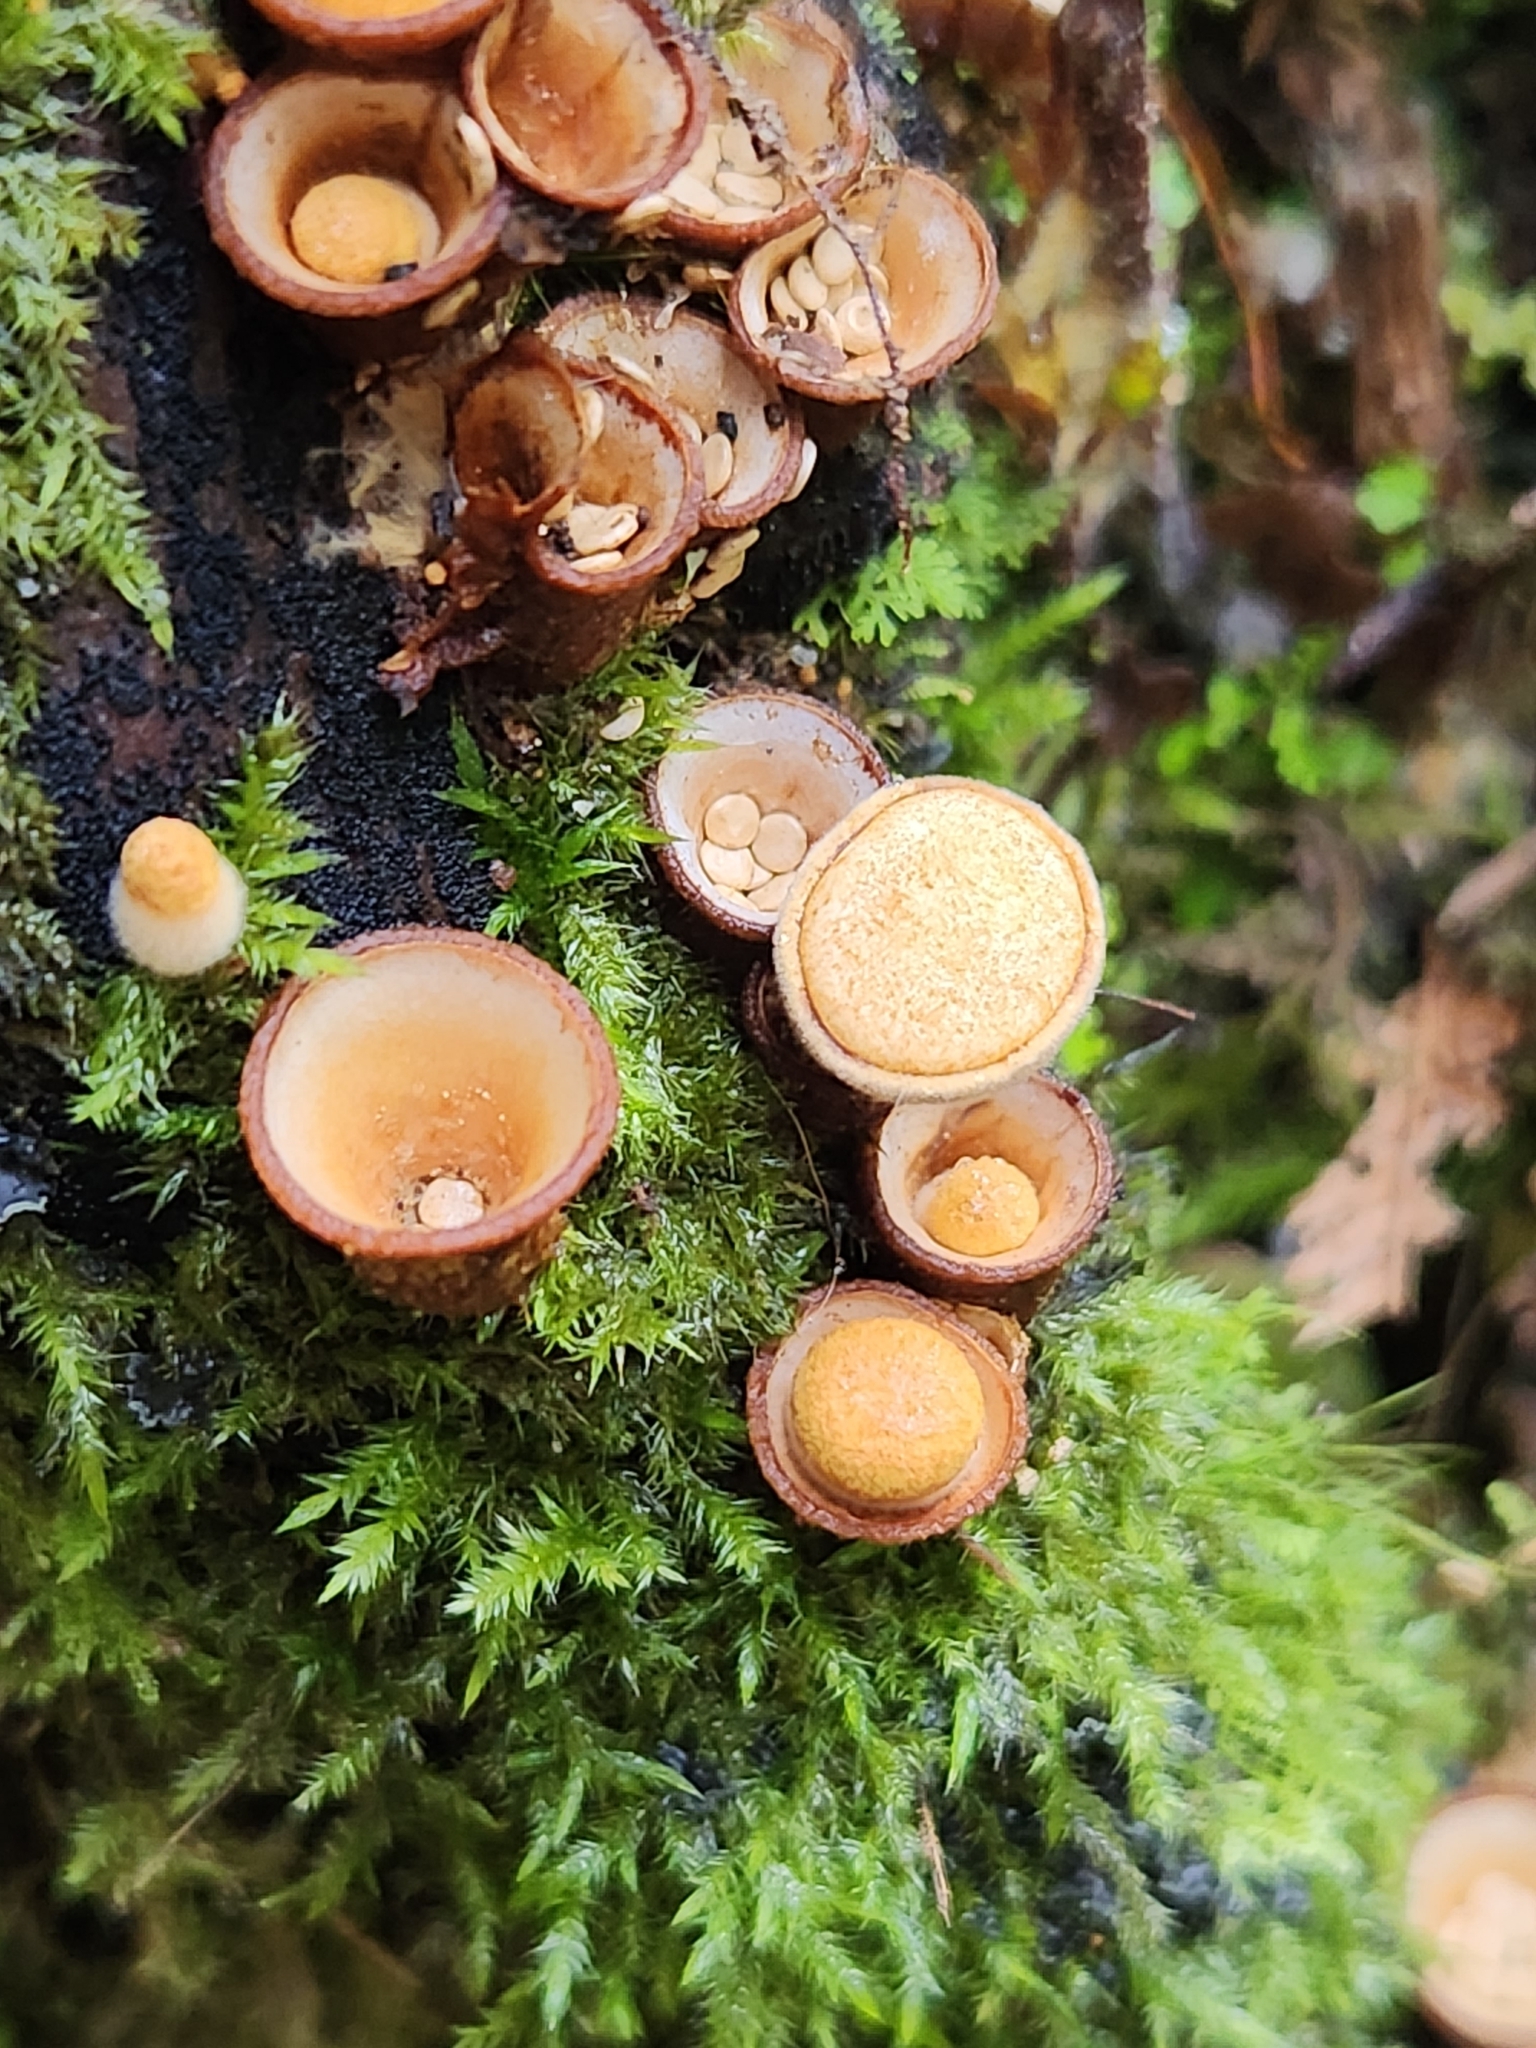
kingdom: Fungi
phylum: Basidiomycota
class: Agaricomycetes
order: Agaricales
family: Nidulariaceae
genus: Crucibulum
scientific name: Crucibulum simile
